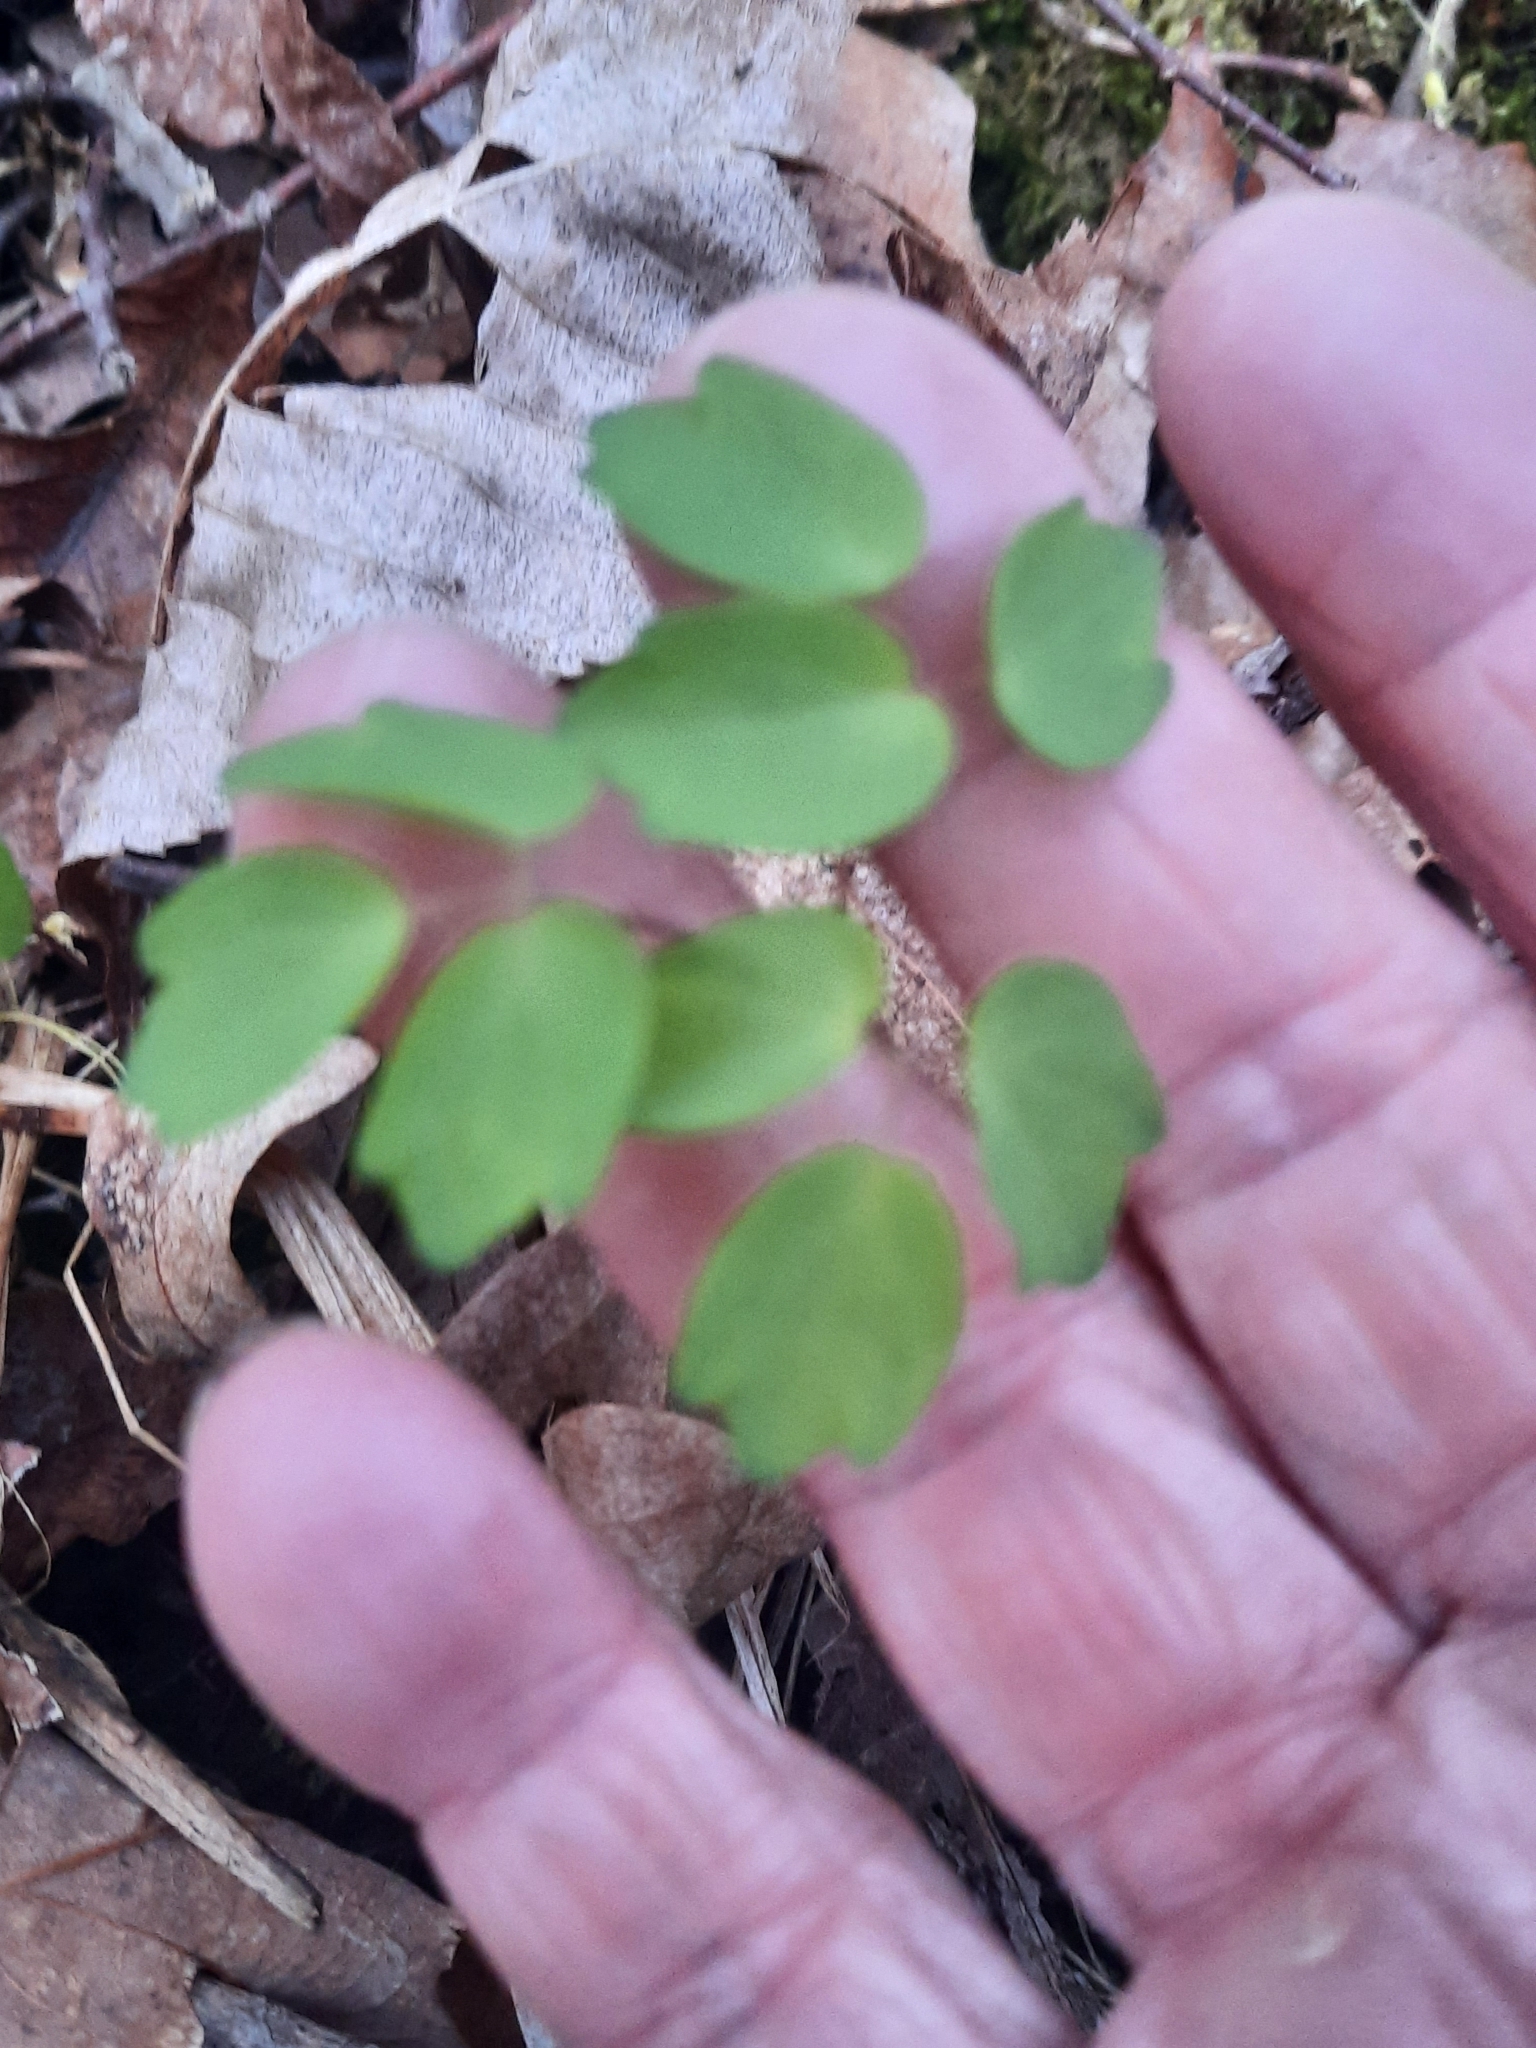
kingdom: Plantae
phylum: Tracheophyta
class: Magnoliopsida
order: Ranunculales
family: Ranunculaceae
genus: Thalictrum
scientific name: Thalictrum pubescens
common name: King-of-the-meadow
